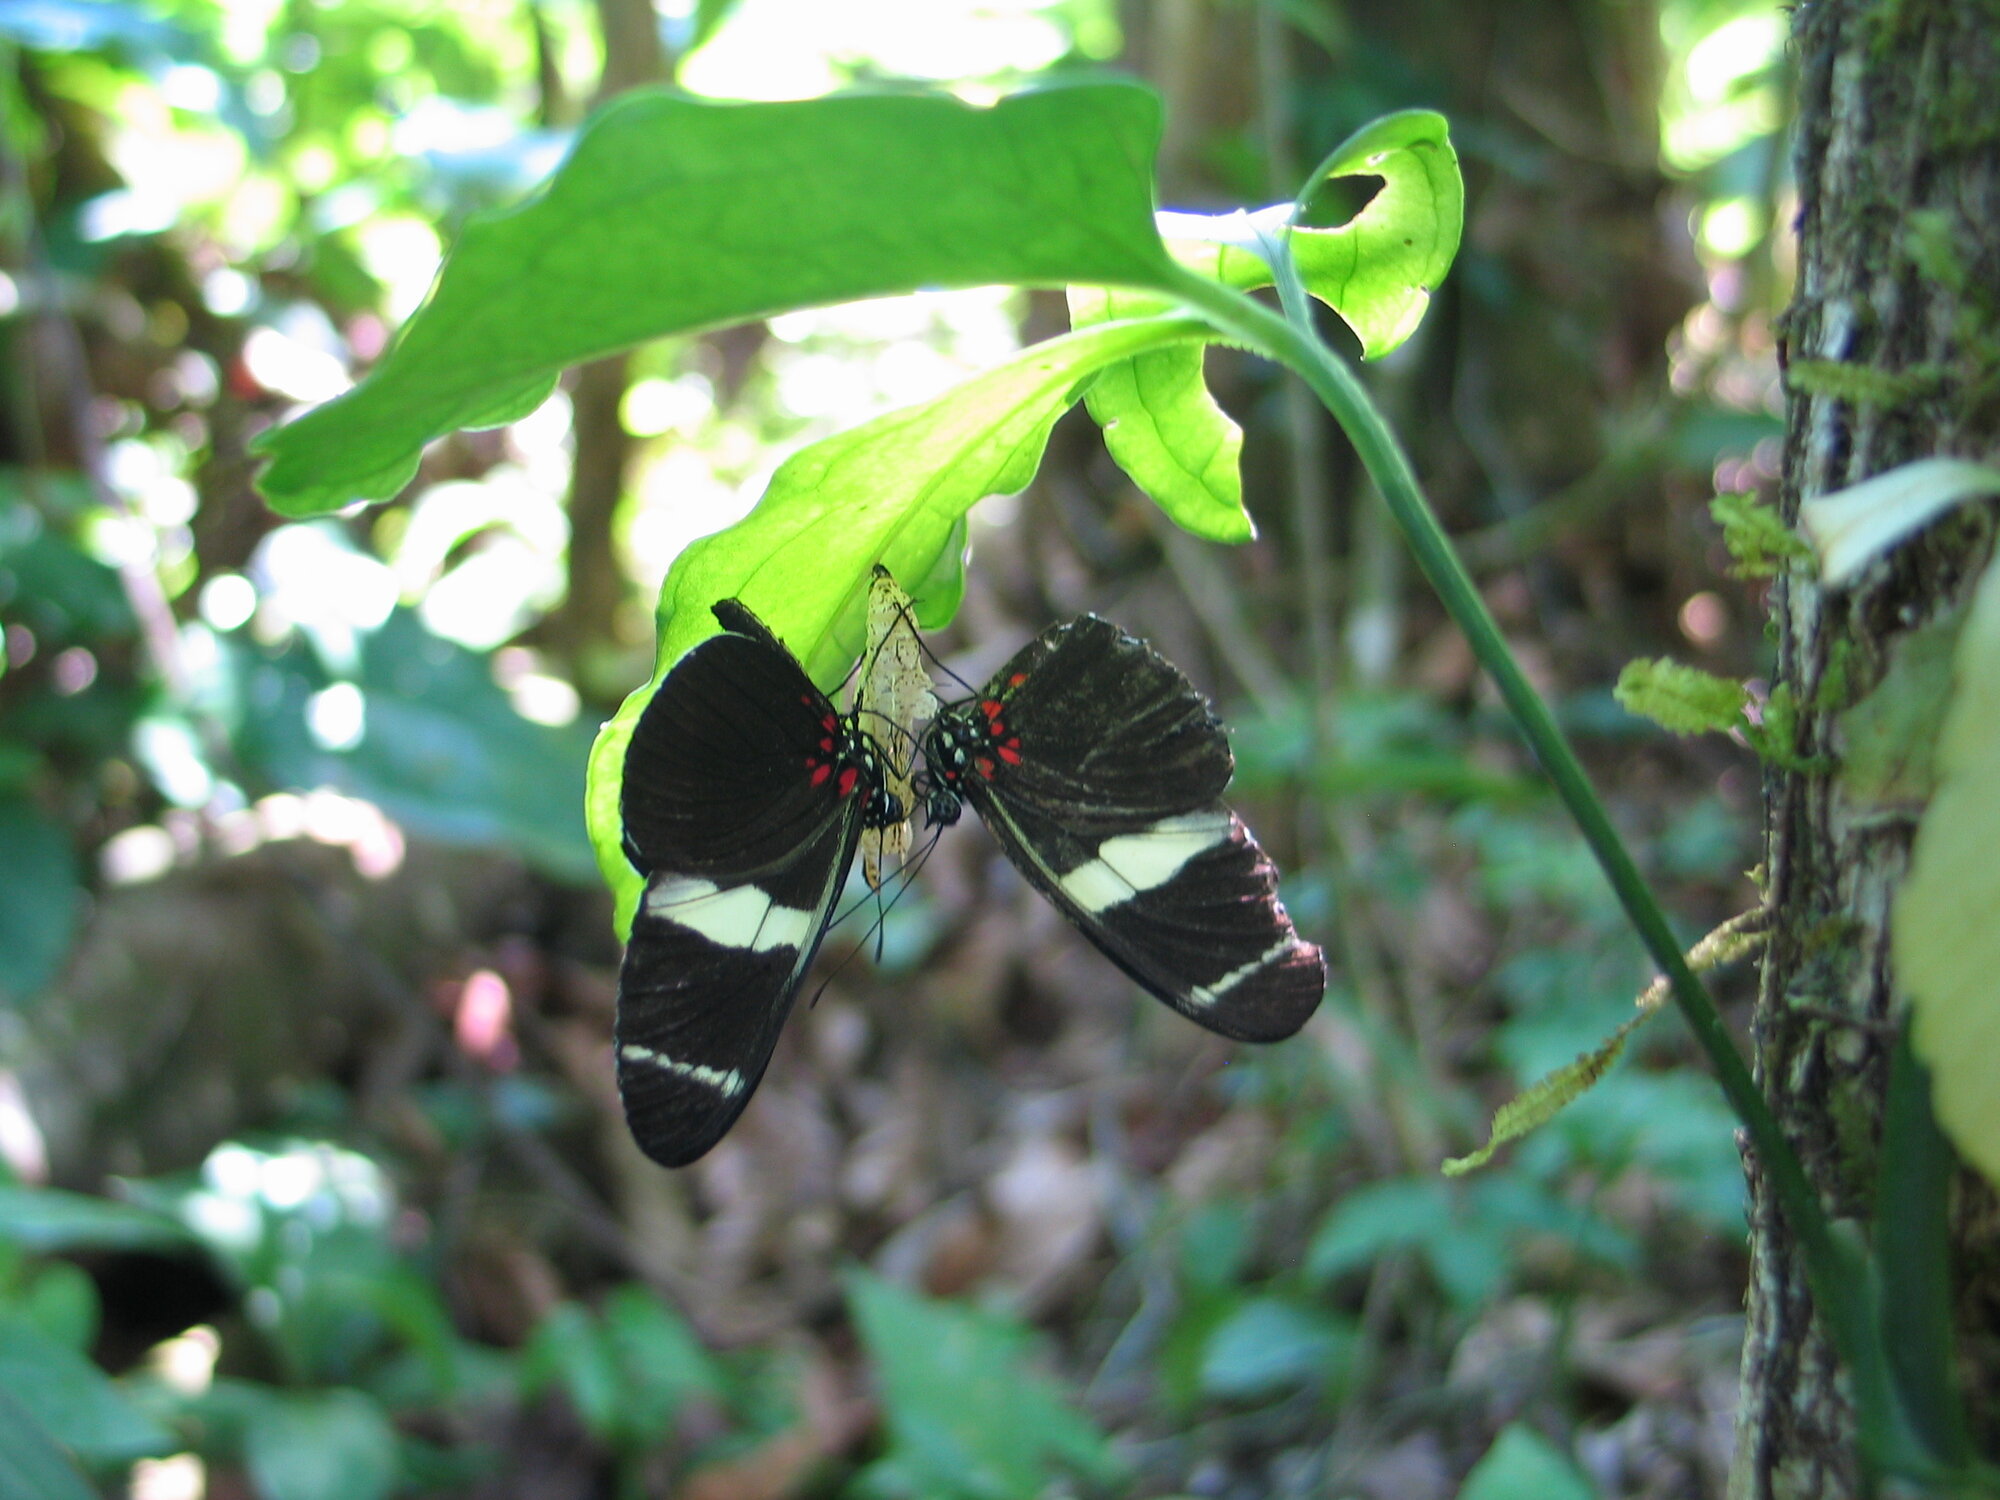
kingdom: Animalia
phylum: Arthropoda
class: Insecta
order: Lepidoptera
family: Nymphalidae
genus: Heliconius
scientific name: Heliconius sara
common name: Sara longwing
